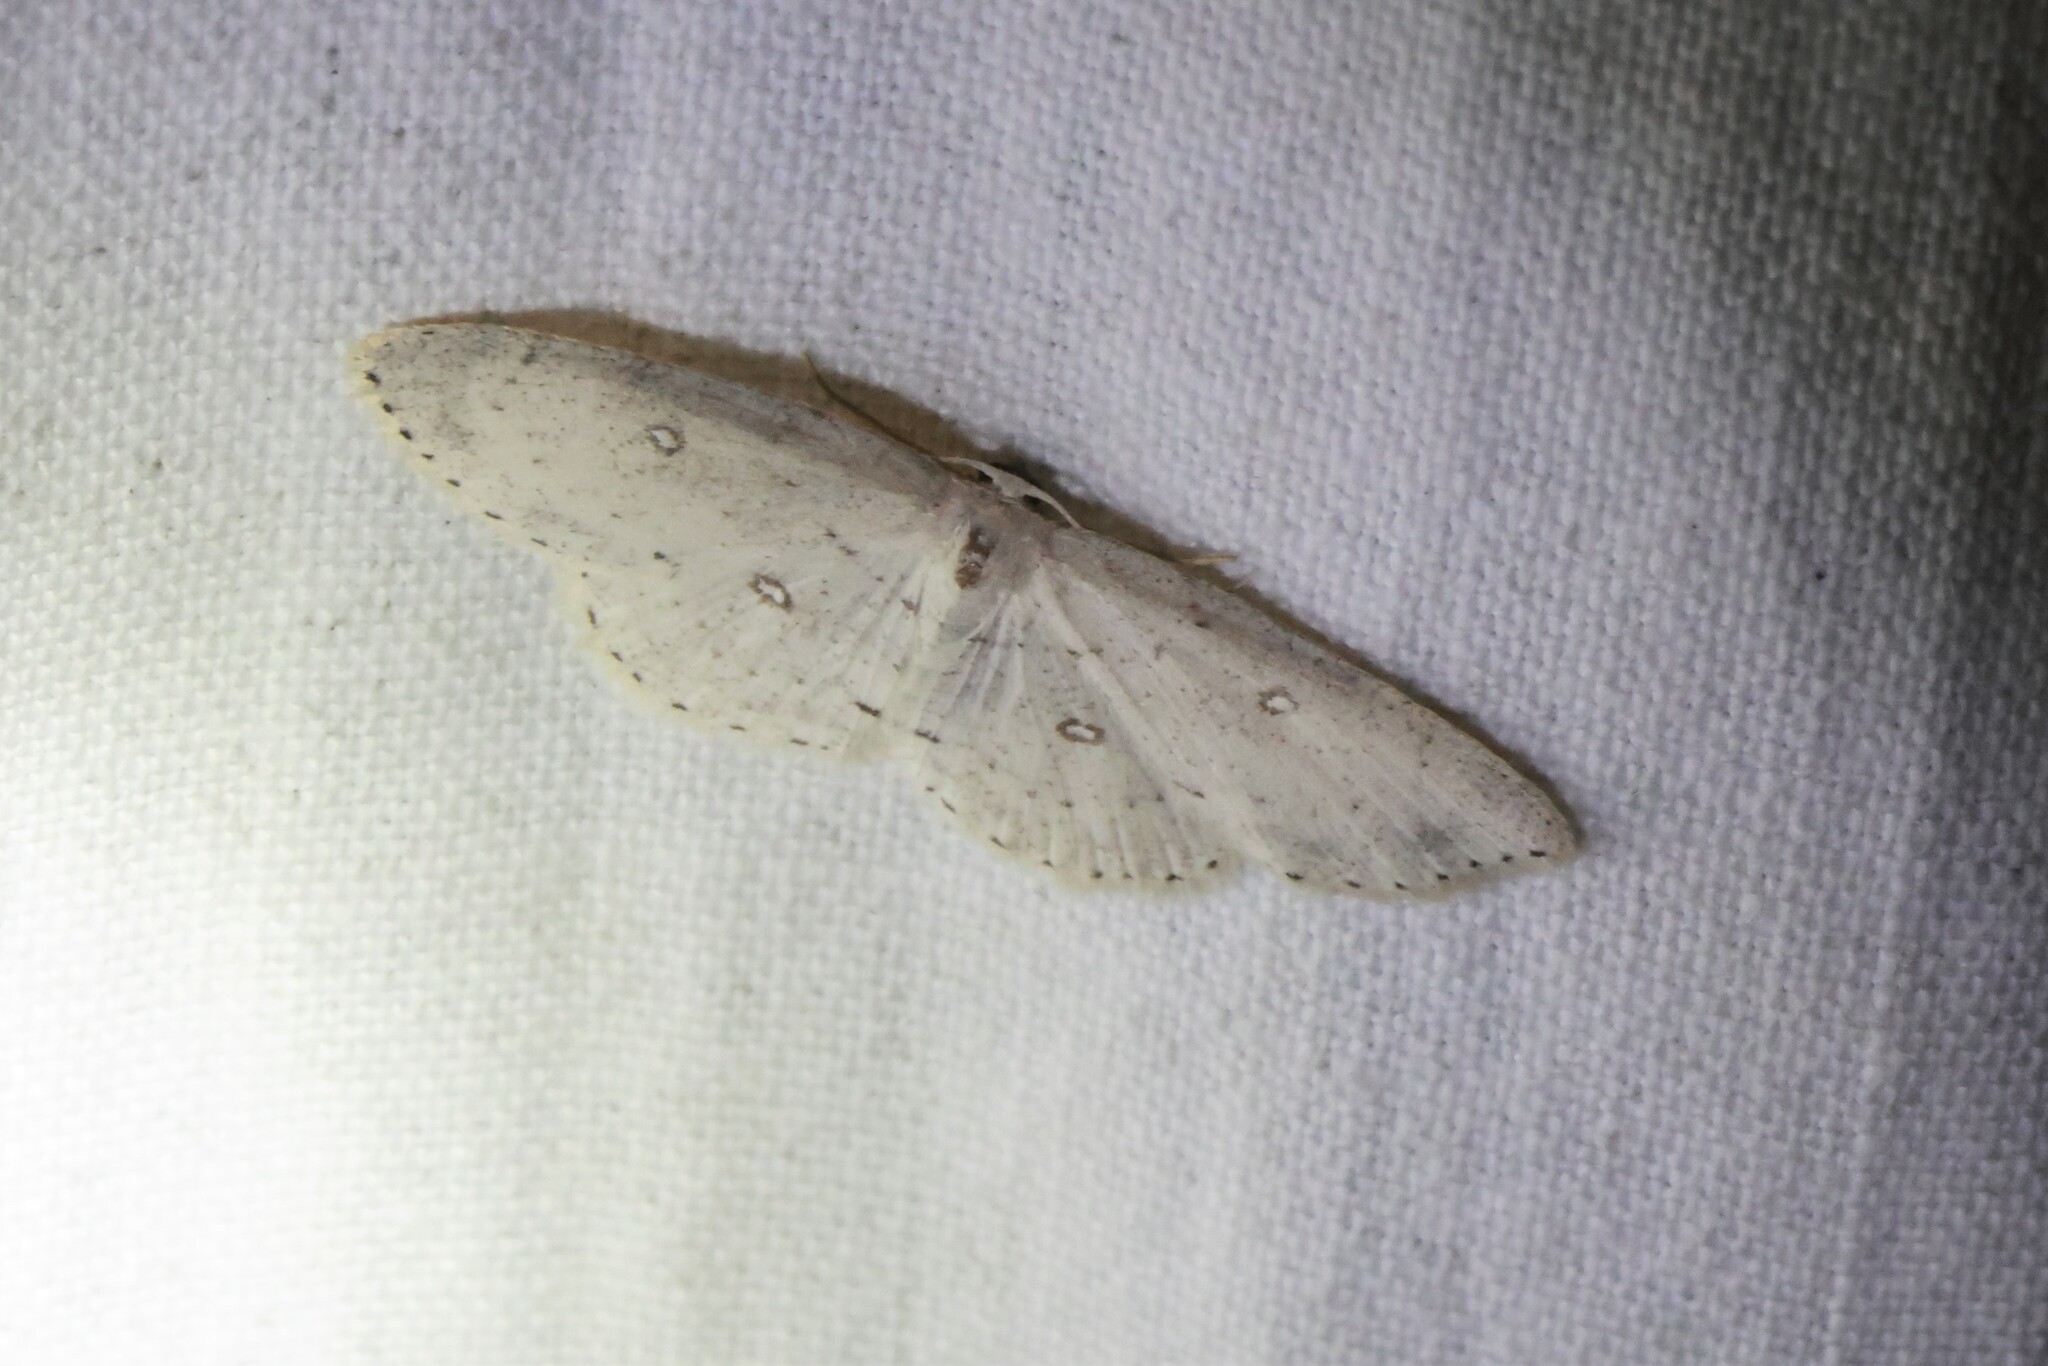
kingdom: Animalia
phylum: Arthropoda
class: Insecta
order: Lepidoptera
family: Geometridae
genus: Cyclophora
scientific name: Cyclophora pendulinaria
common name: Sweet fern geometer
